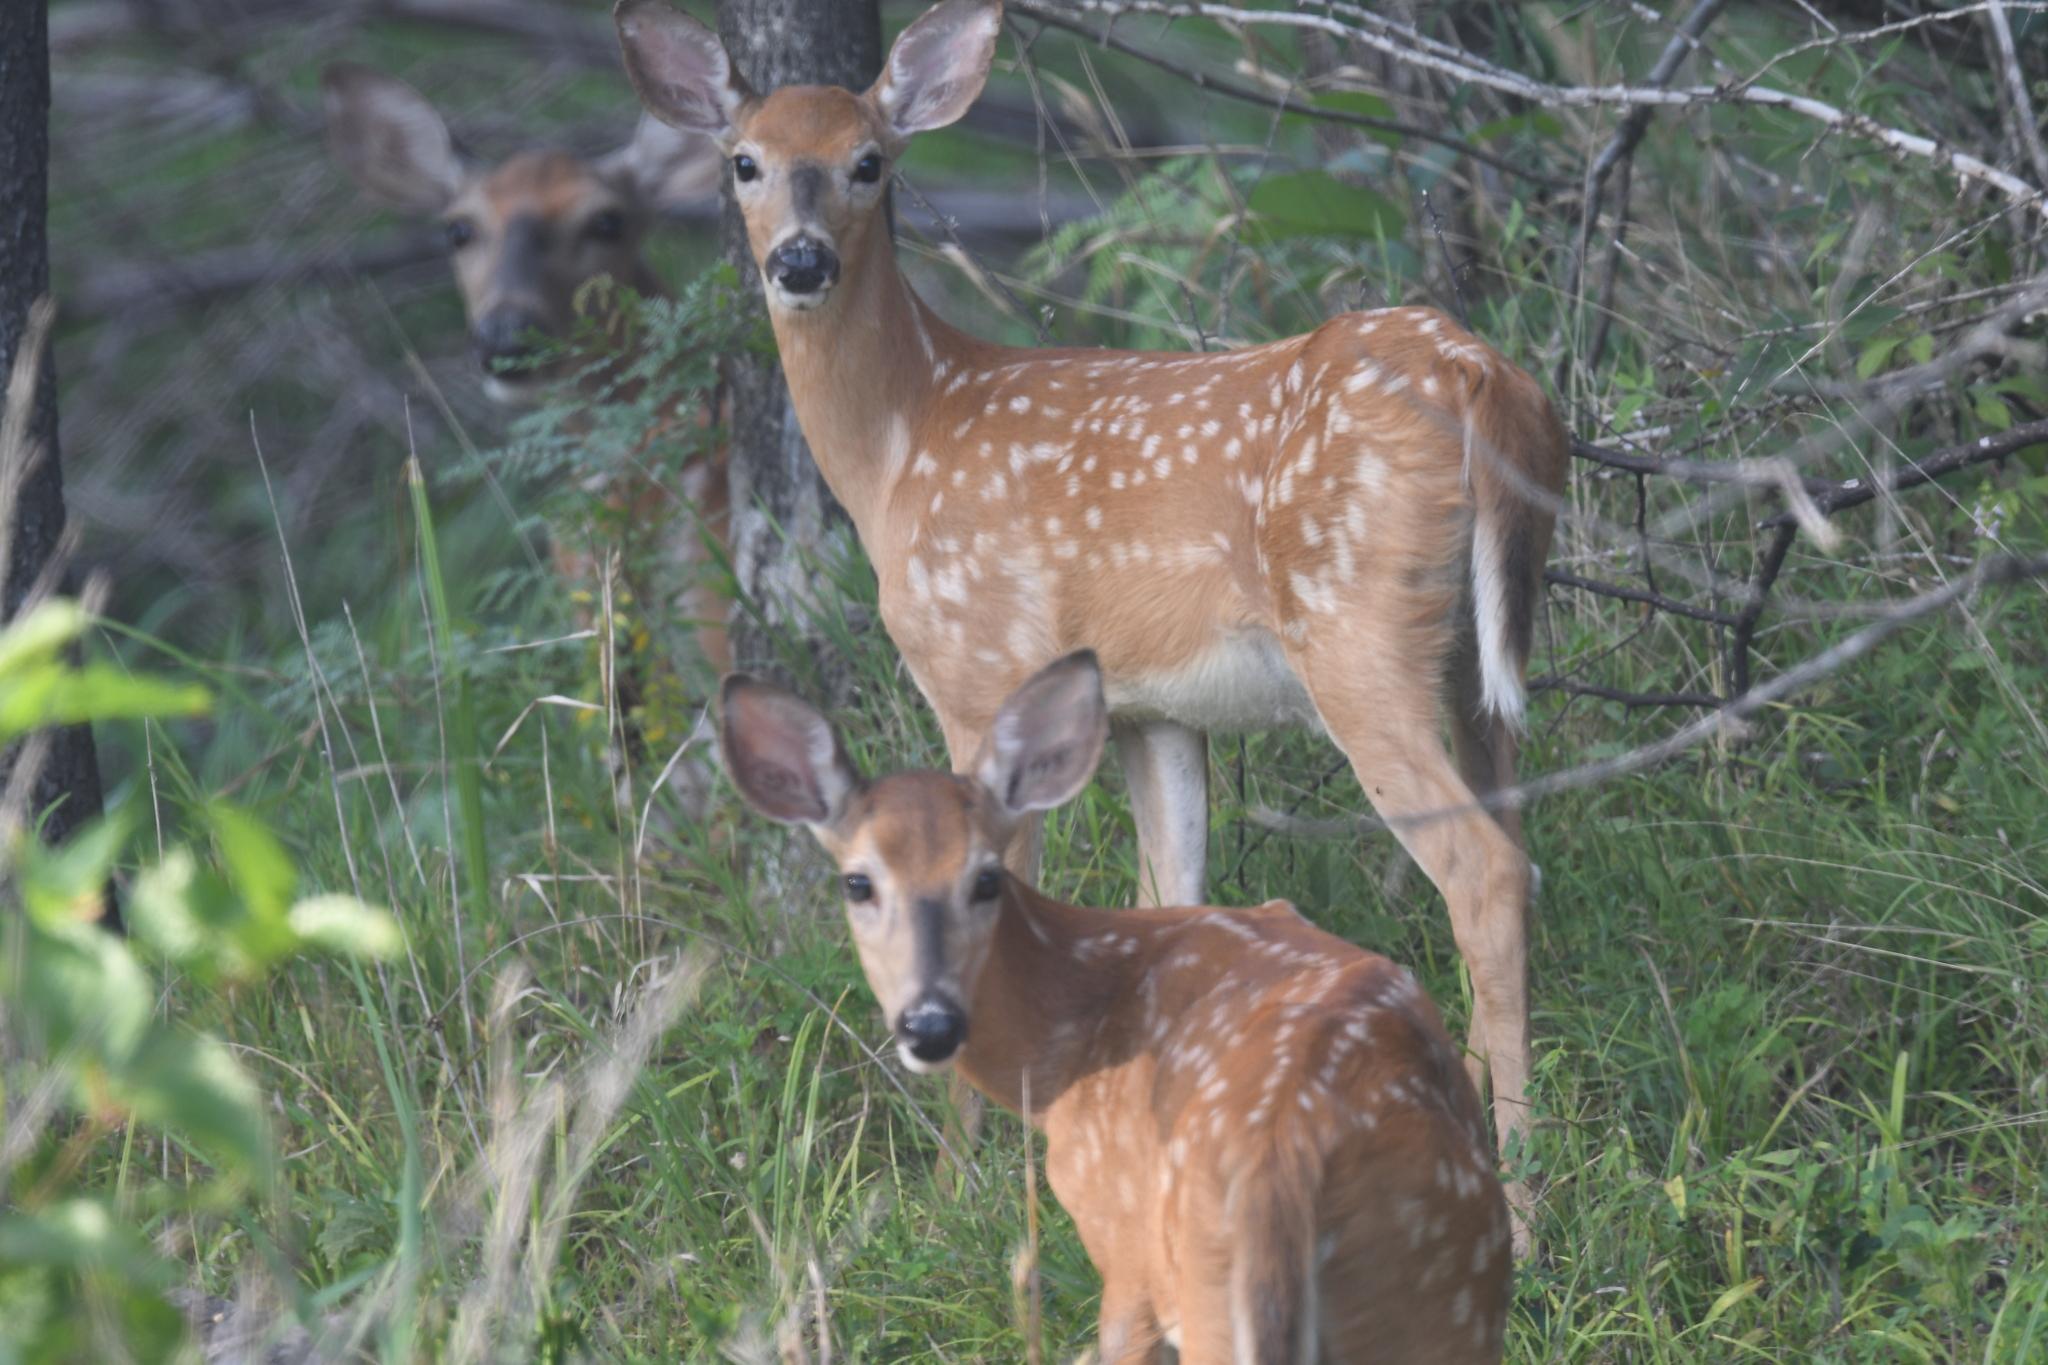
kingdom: Animalia
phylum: Chordata
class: Mammalia
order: Artiodactyla
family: Cervidae
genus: Odocoileus
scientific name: Odocoileus virginianus
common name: White-tailed deer
